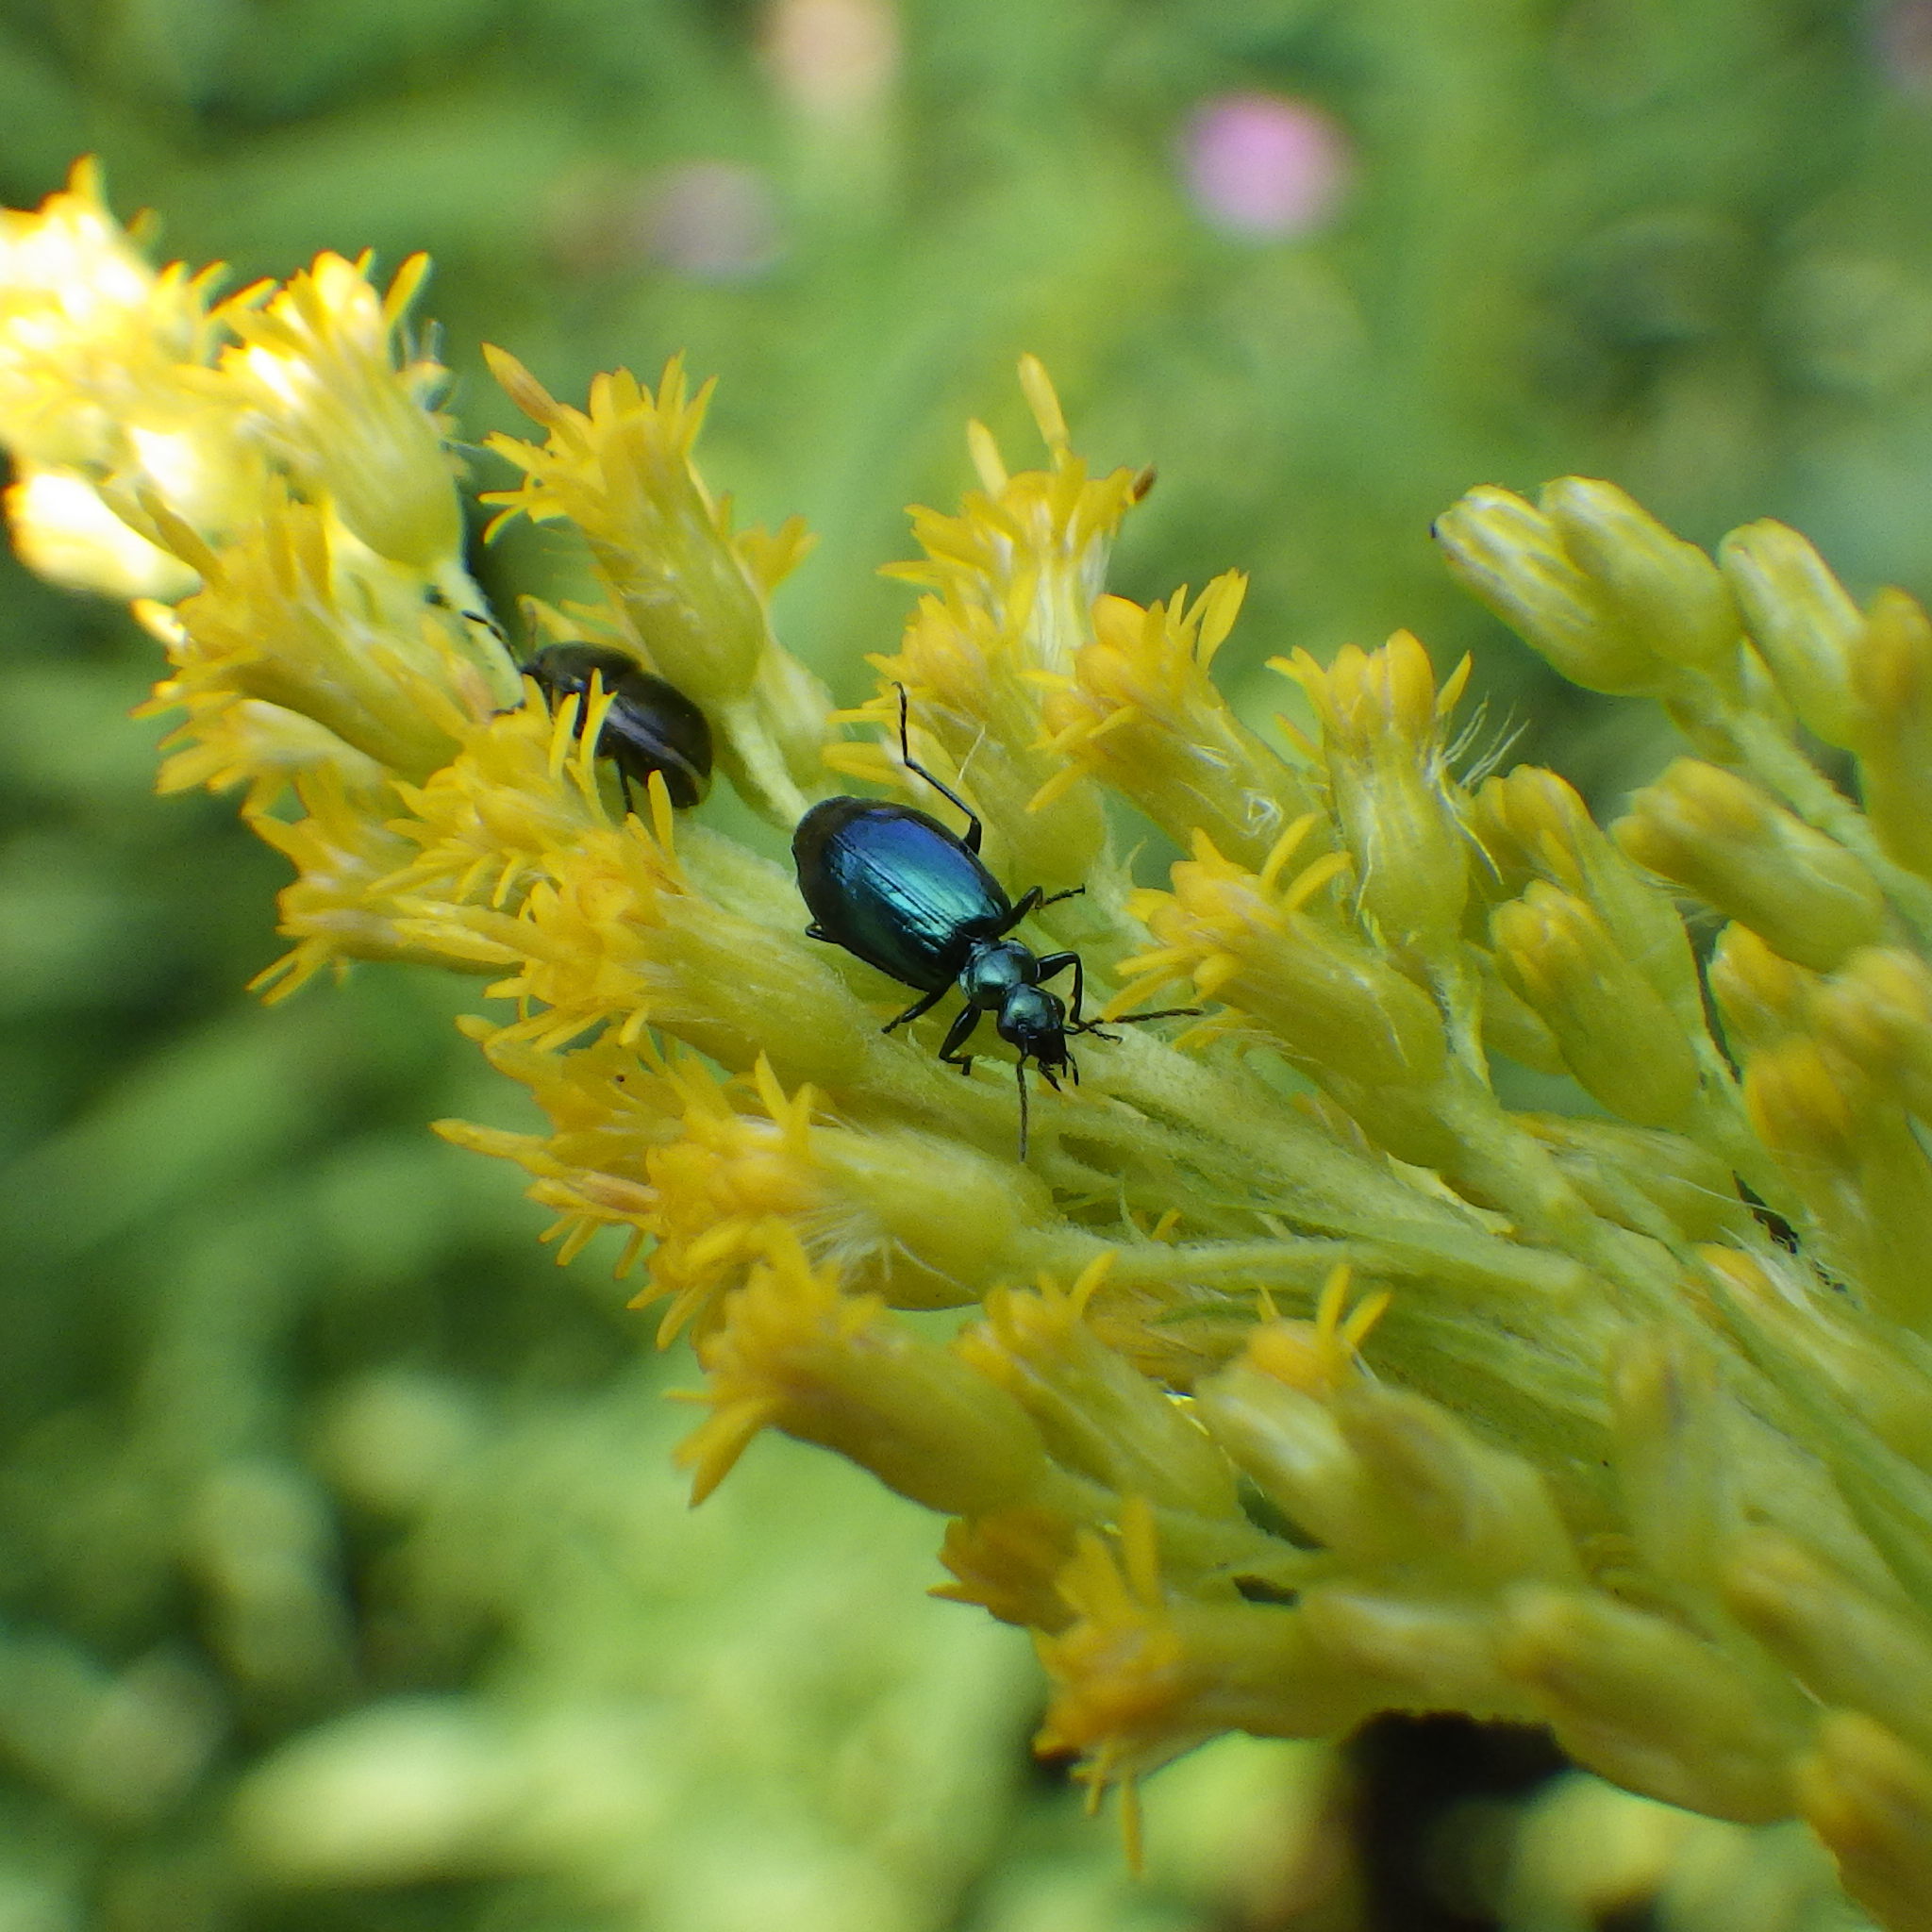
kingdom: Animalia
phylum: Arthropoda
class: Insecta
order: Coleoptera
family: Carabidae
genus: Lebia
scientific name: Lebia viridis
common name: Flower lebia beetle
